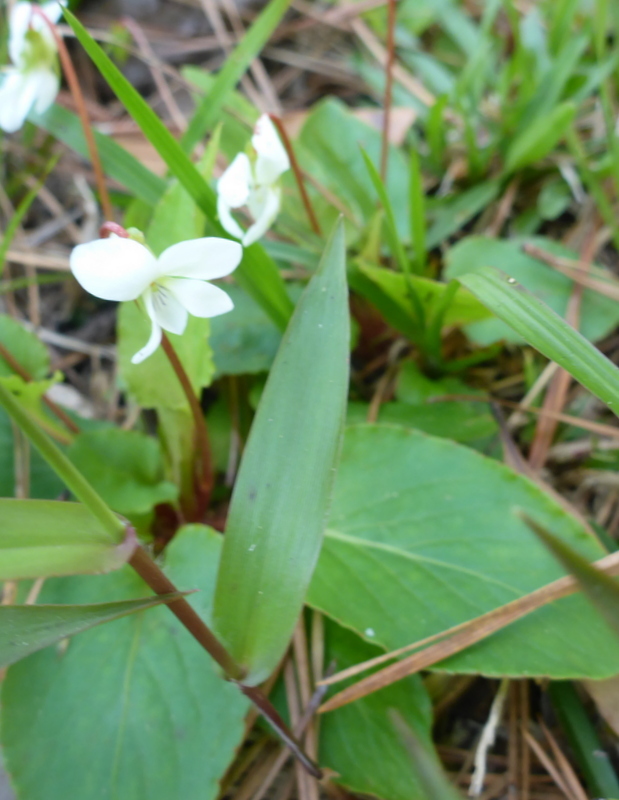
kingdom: Plantae
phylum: Tracheophyta
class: Magnoliopsida
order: Malpighiales
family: Violaceae
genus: Viola
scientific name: Viola primulifolia
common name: Primrose-leaf violet
